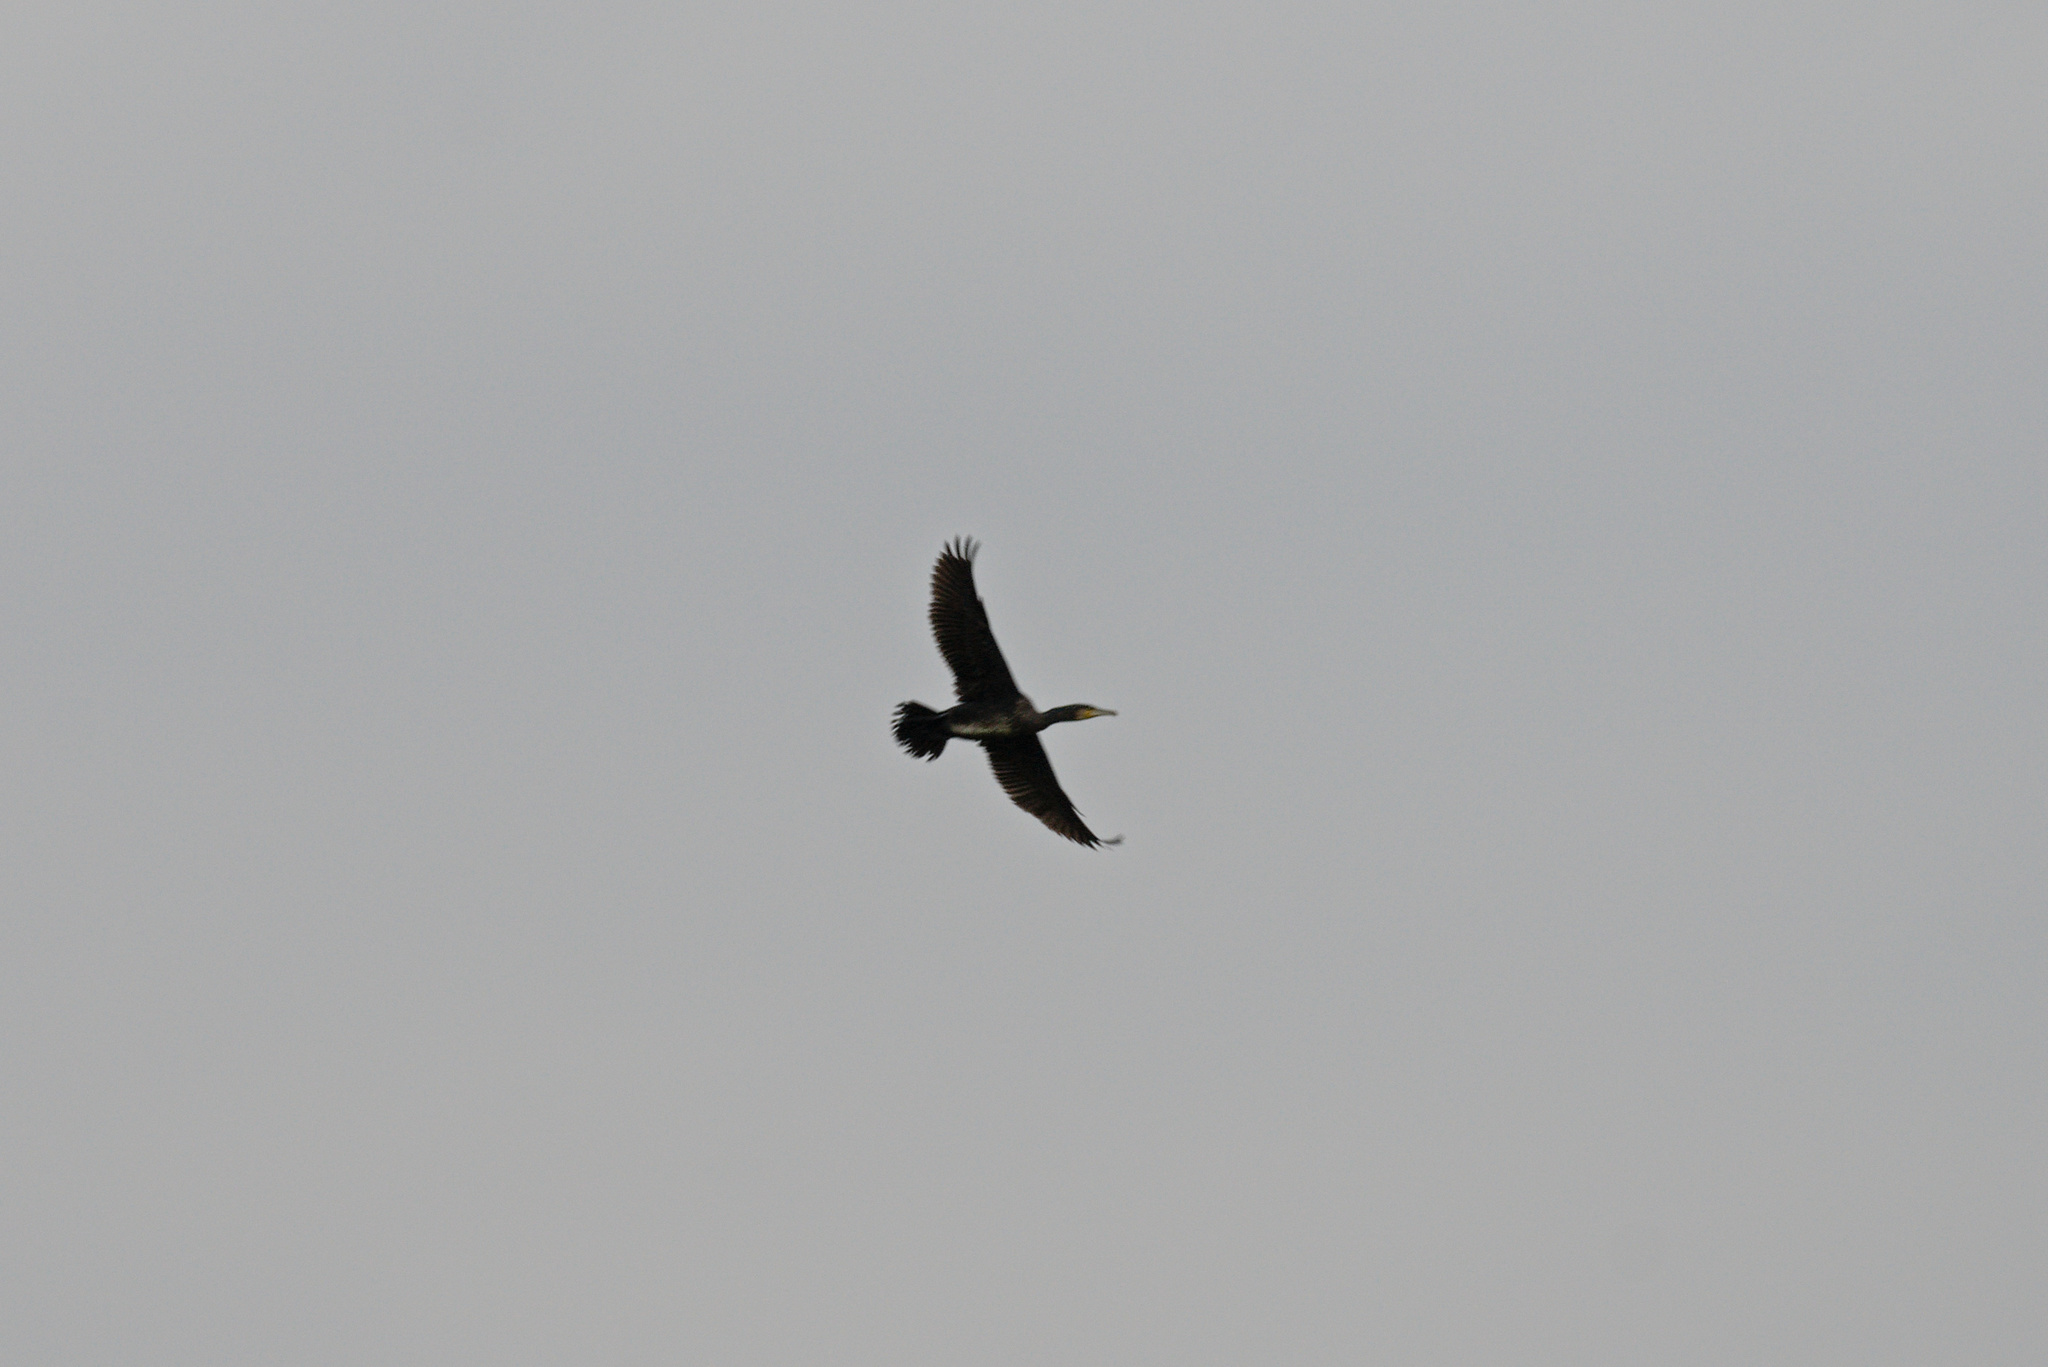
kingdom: Animalia
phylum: Chordata
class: Aves
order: Suliformes
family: Phalacrocoracidae
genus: Phalacrocorax
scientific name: Phalacrocorax carbo
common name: Great cormorant
